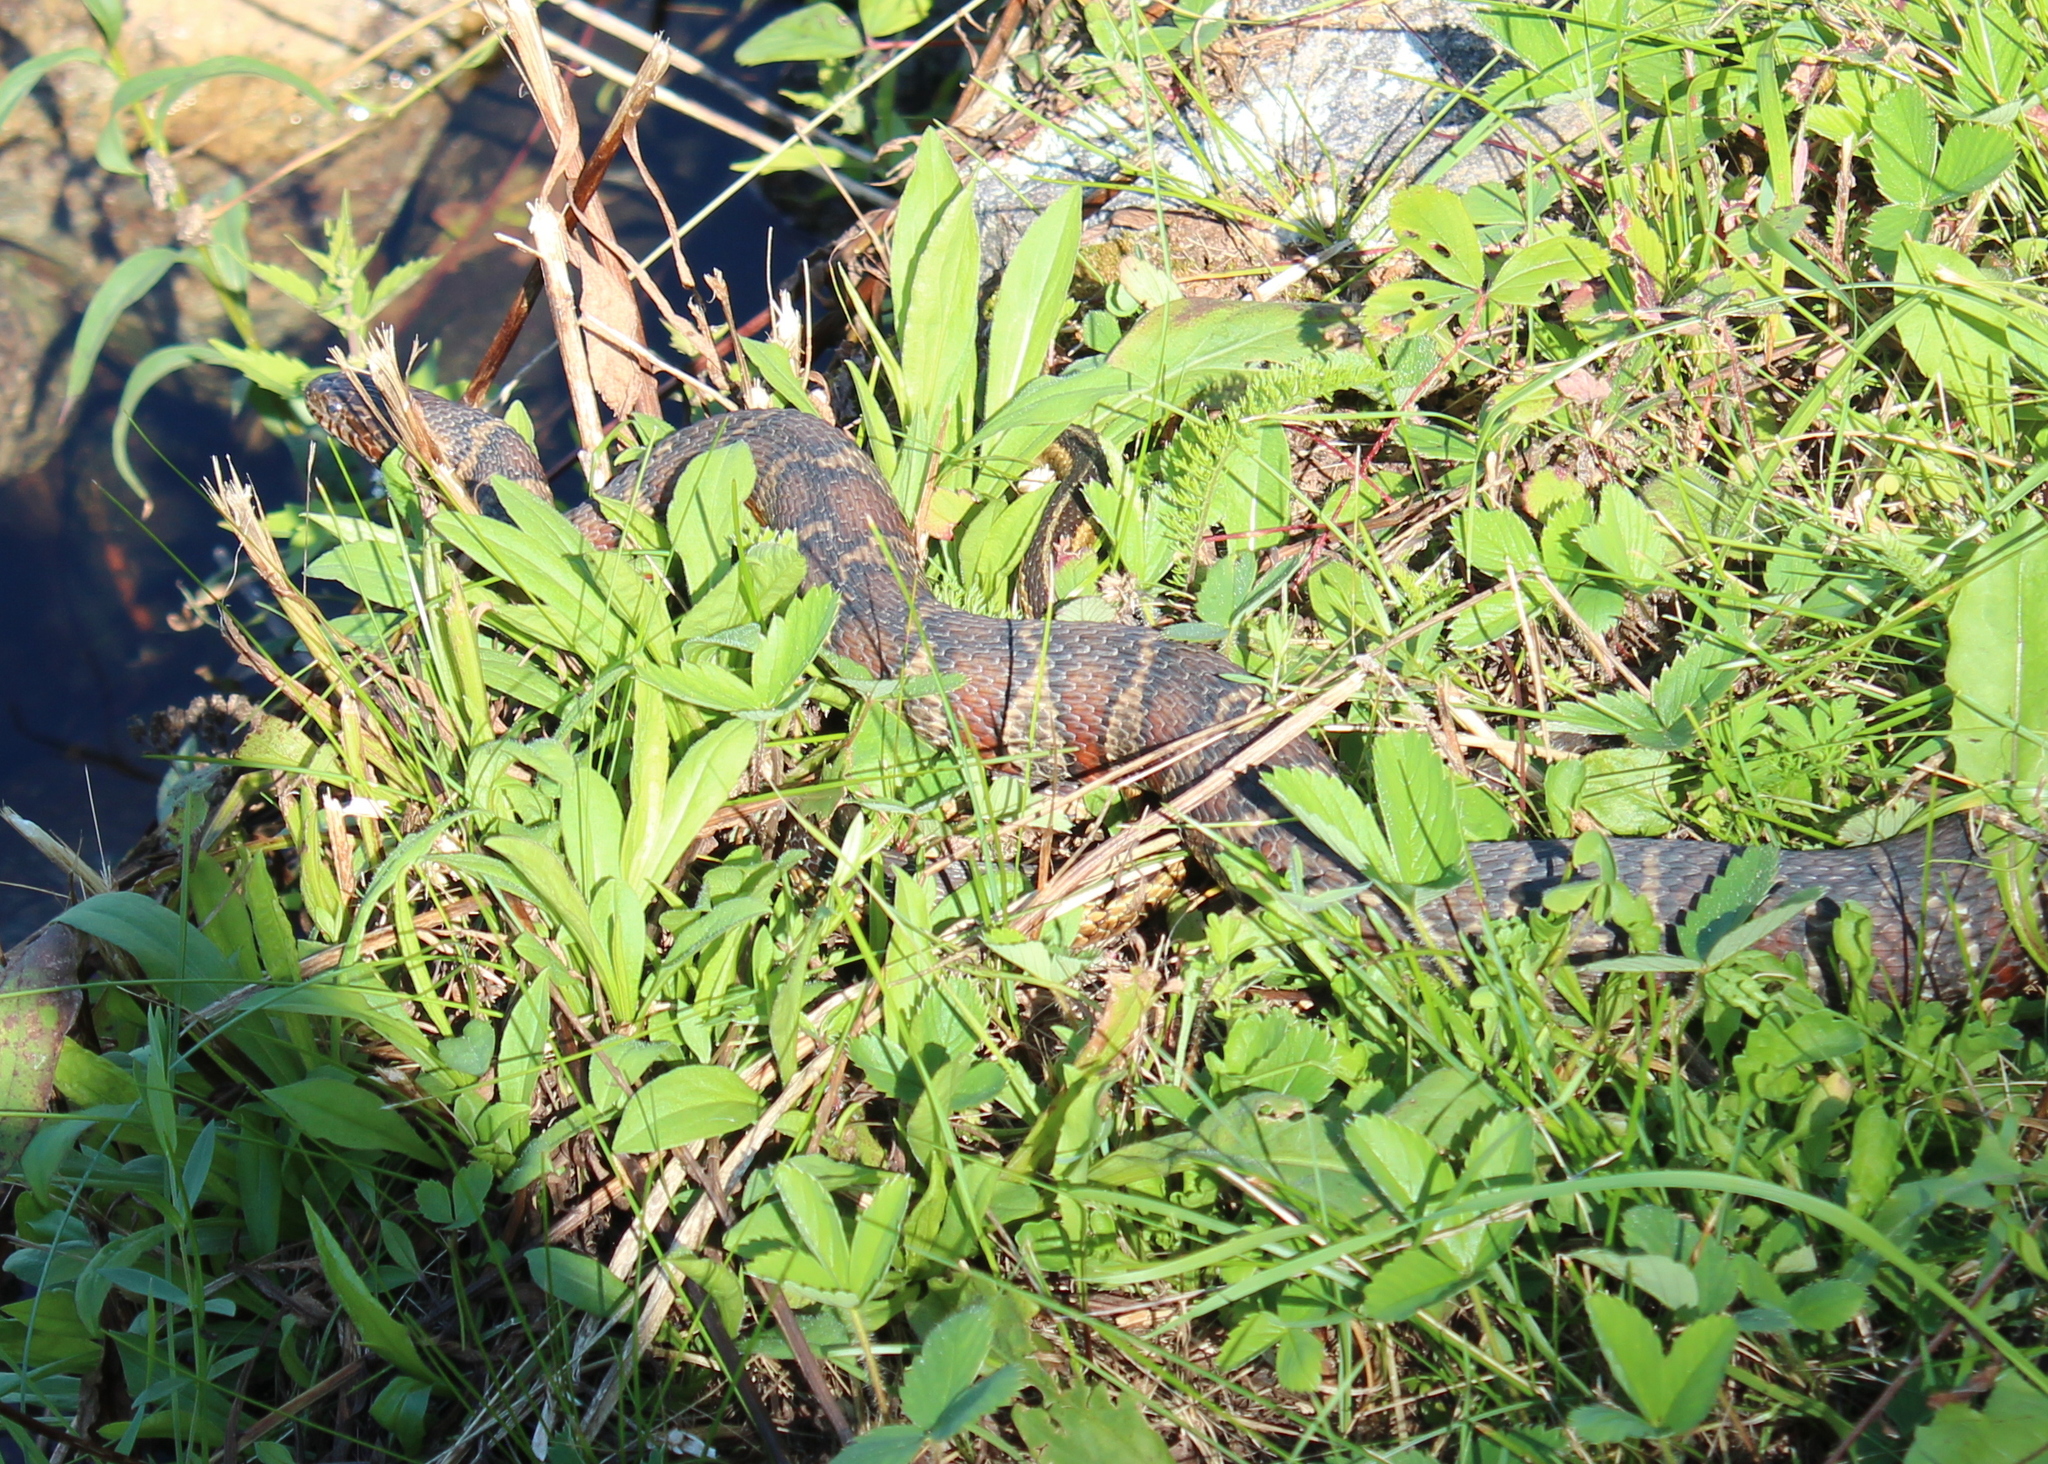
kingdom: Animalia
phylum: Chordata
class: Squamata
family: Colubridae
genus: Nerodia
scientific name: Nerodia sipedon
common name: Northern water snake
